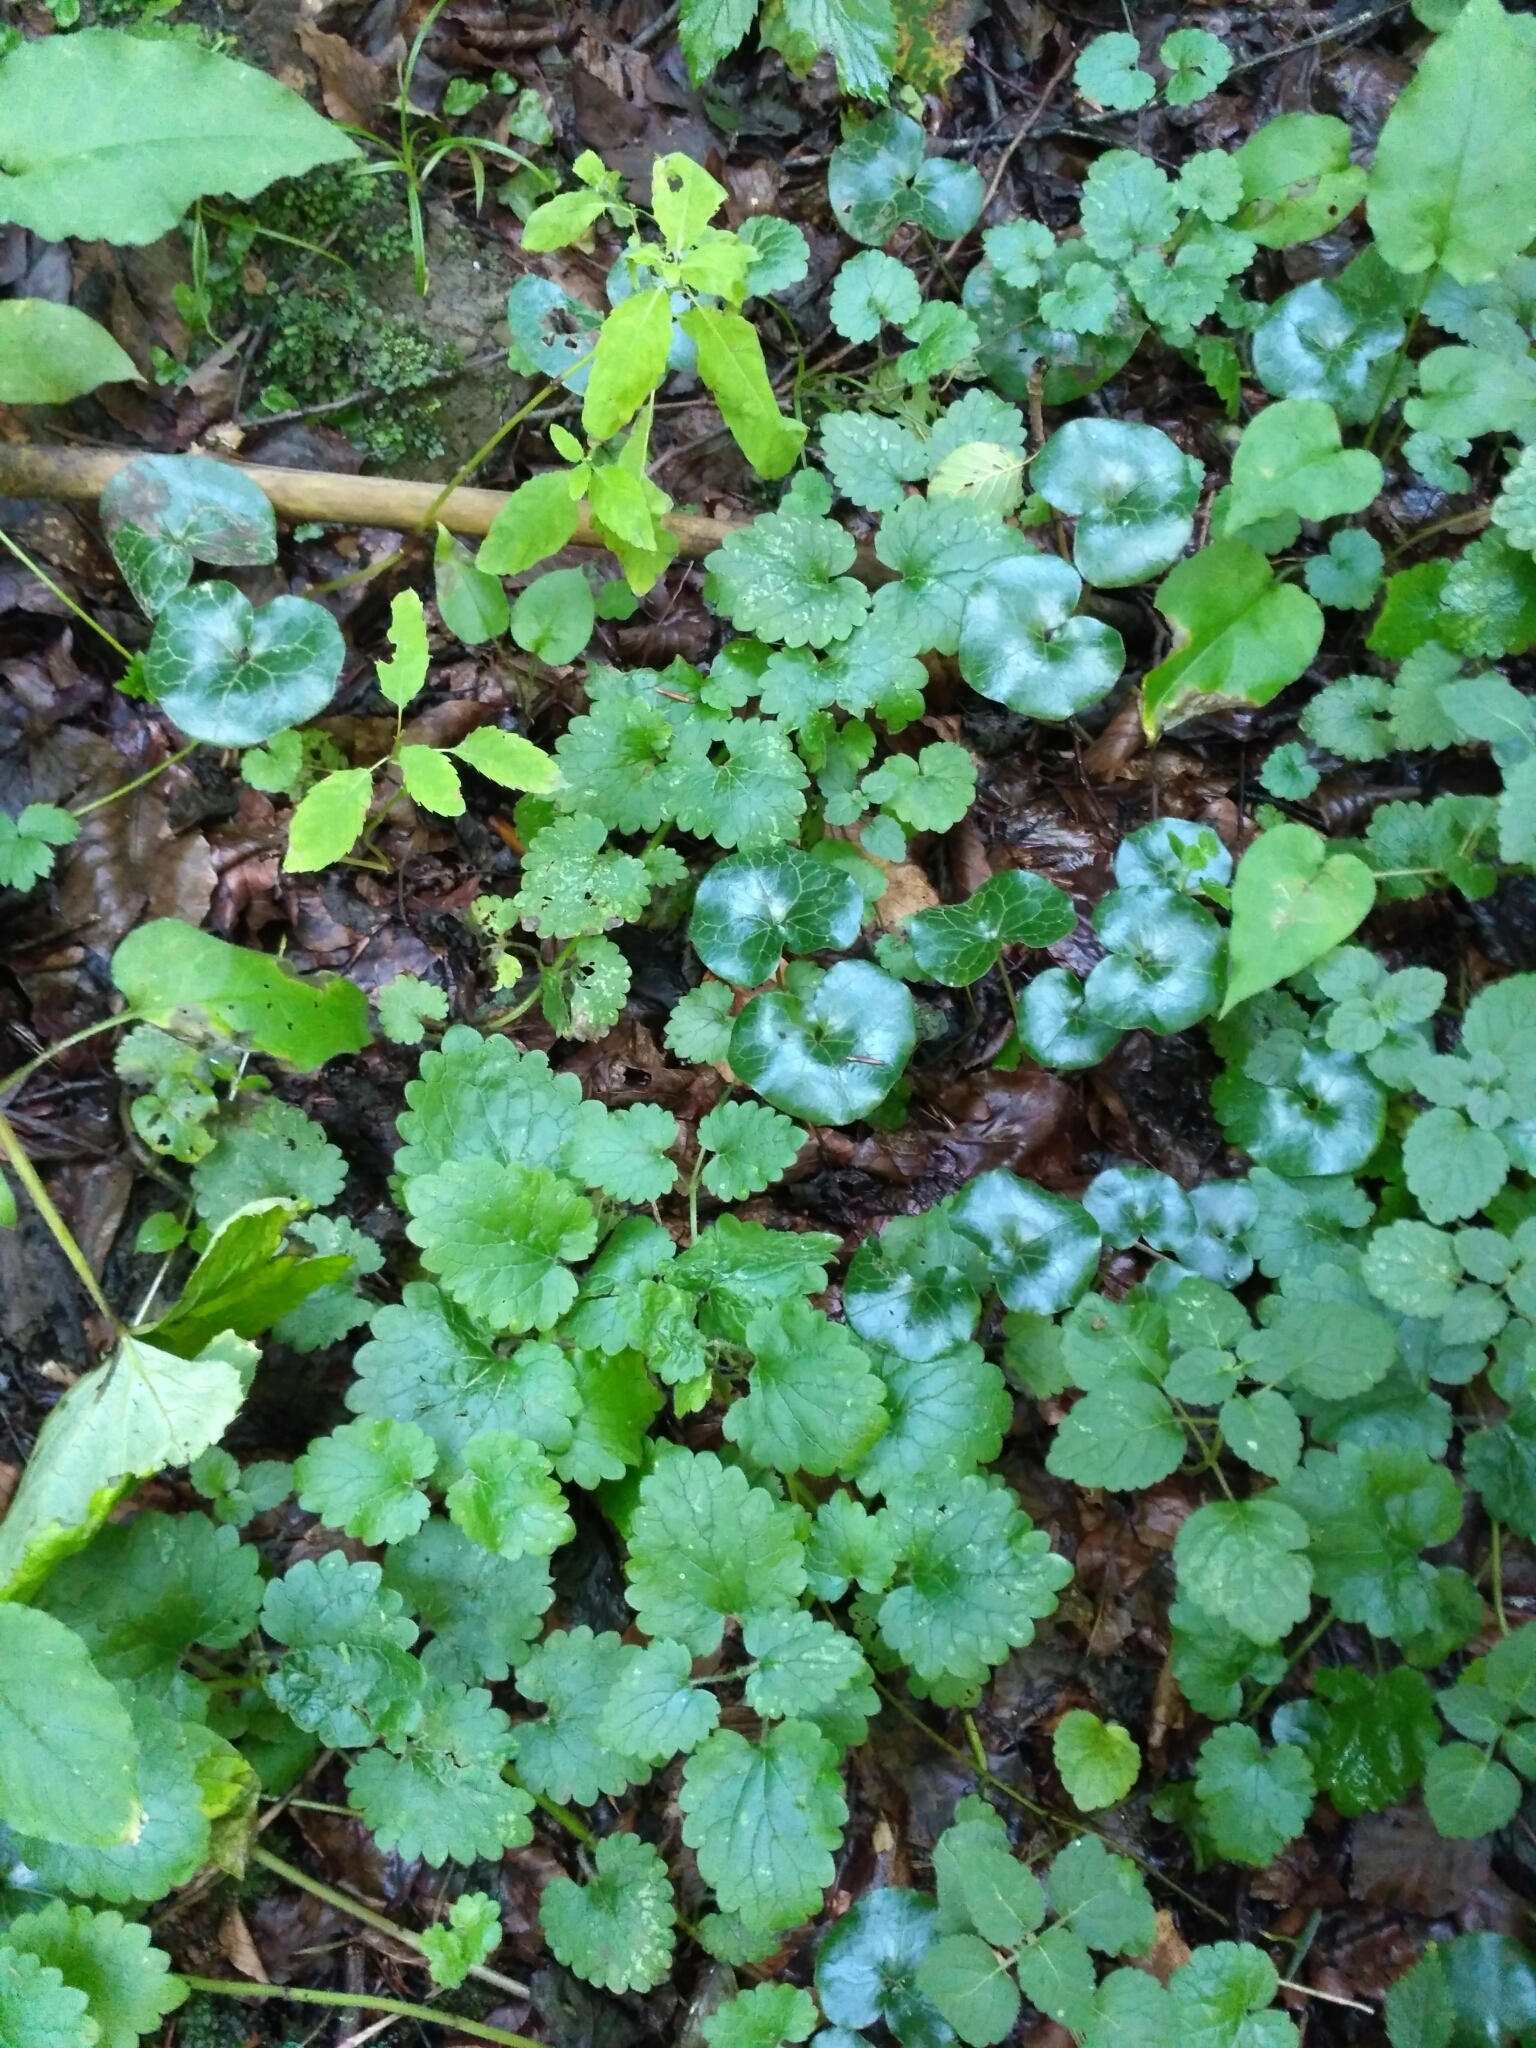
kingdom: Plantae
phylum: Tracheophyta
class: Magnoliopsida
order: Lamiales
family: Lamiaceae
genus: Glechoma
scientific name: Glechoma hederacea
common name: Ground ivy
